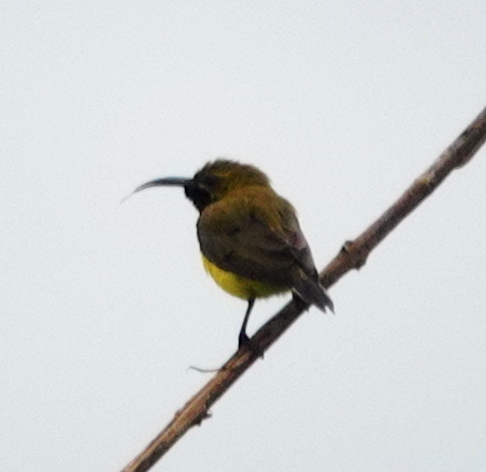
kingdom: Animalia
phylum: Chordata
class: Aves
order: Passeriformes
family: Nectariniidae
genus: Cinnyris
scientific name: Cinnyris
